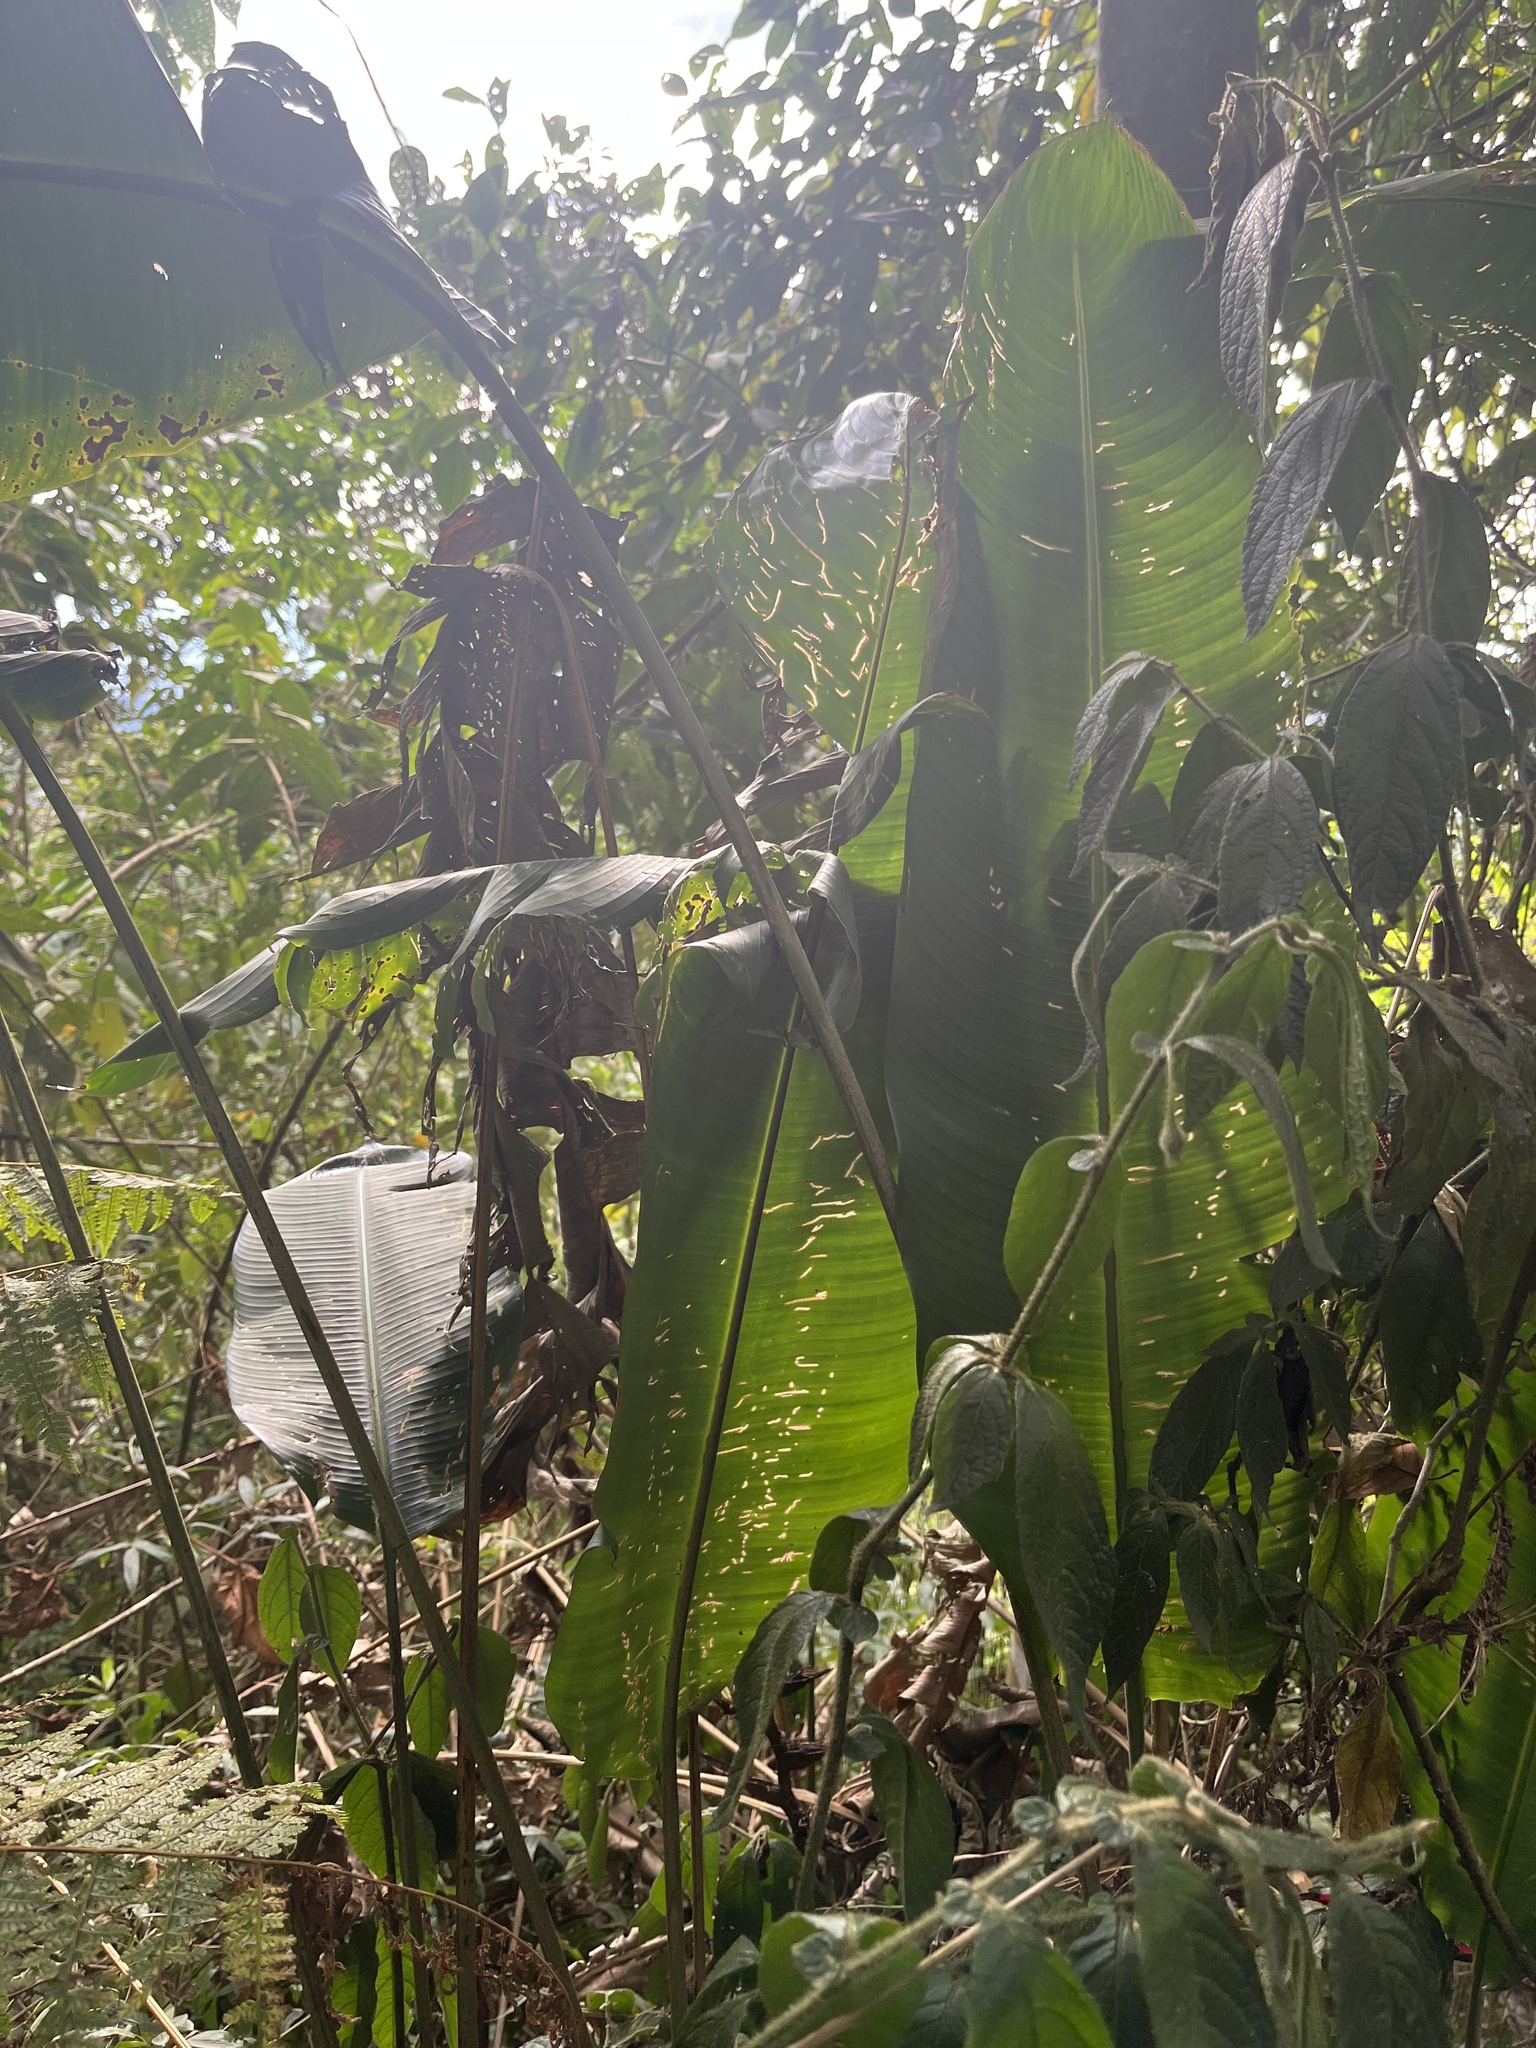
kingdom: Plantae
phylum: Tracheophyta
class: Liliopsida
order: Zingiberales
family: Heliconiaceae
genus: Heliconia
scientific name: Heliconia burleana
